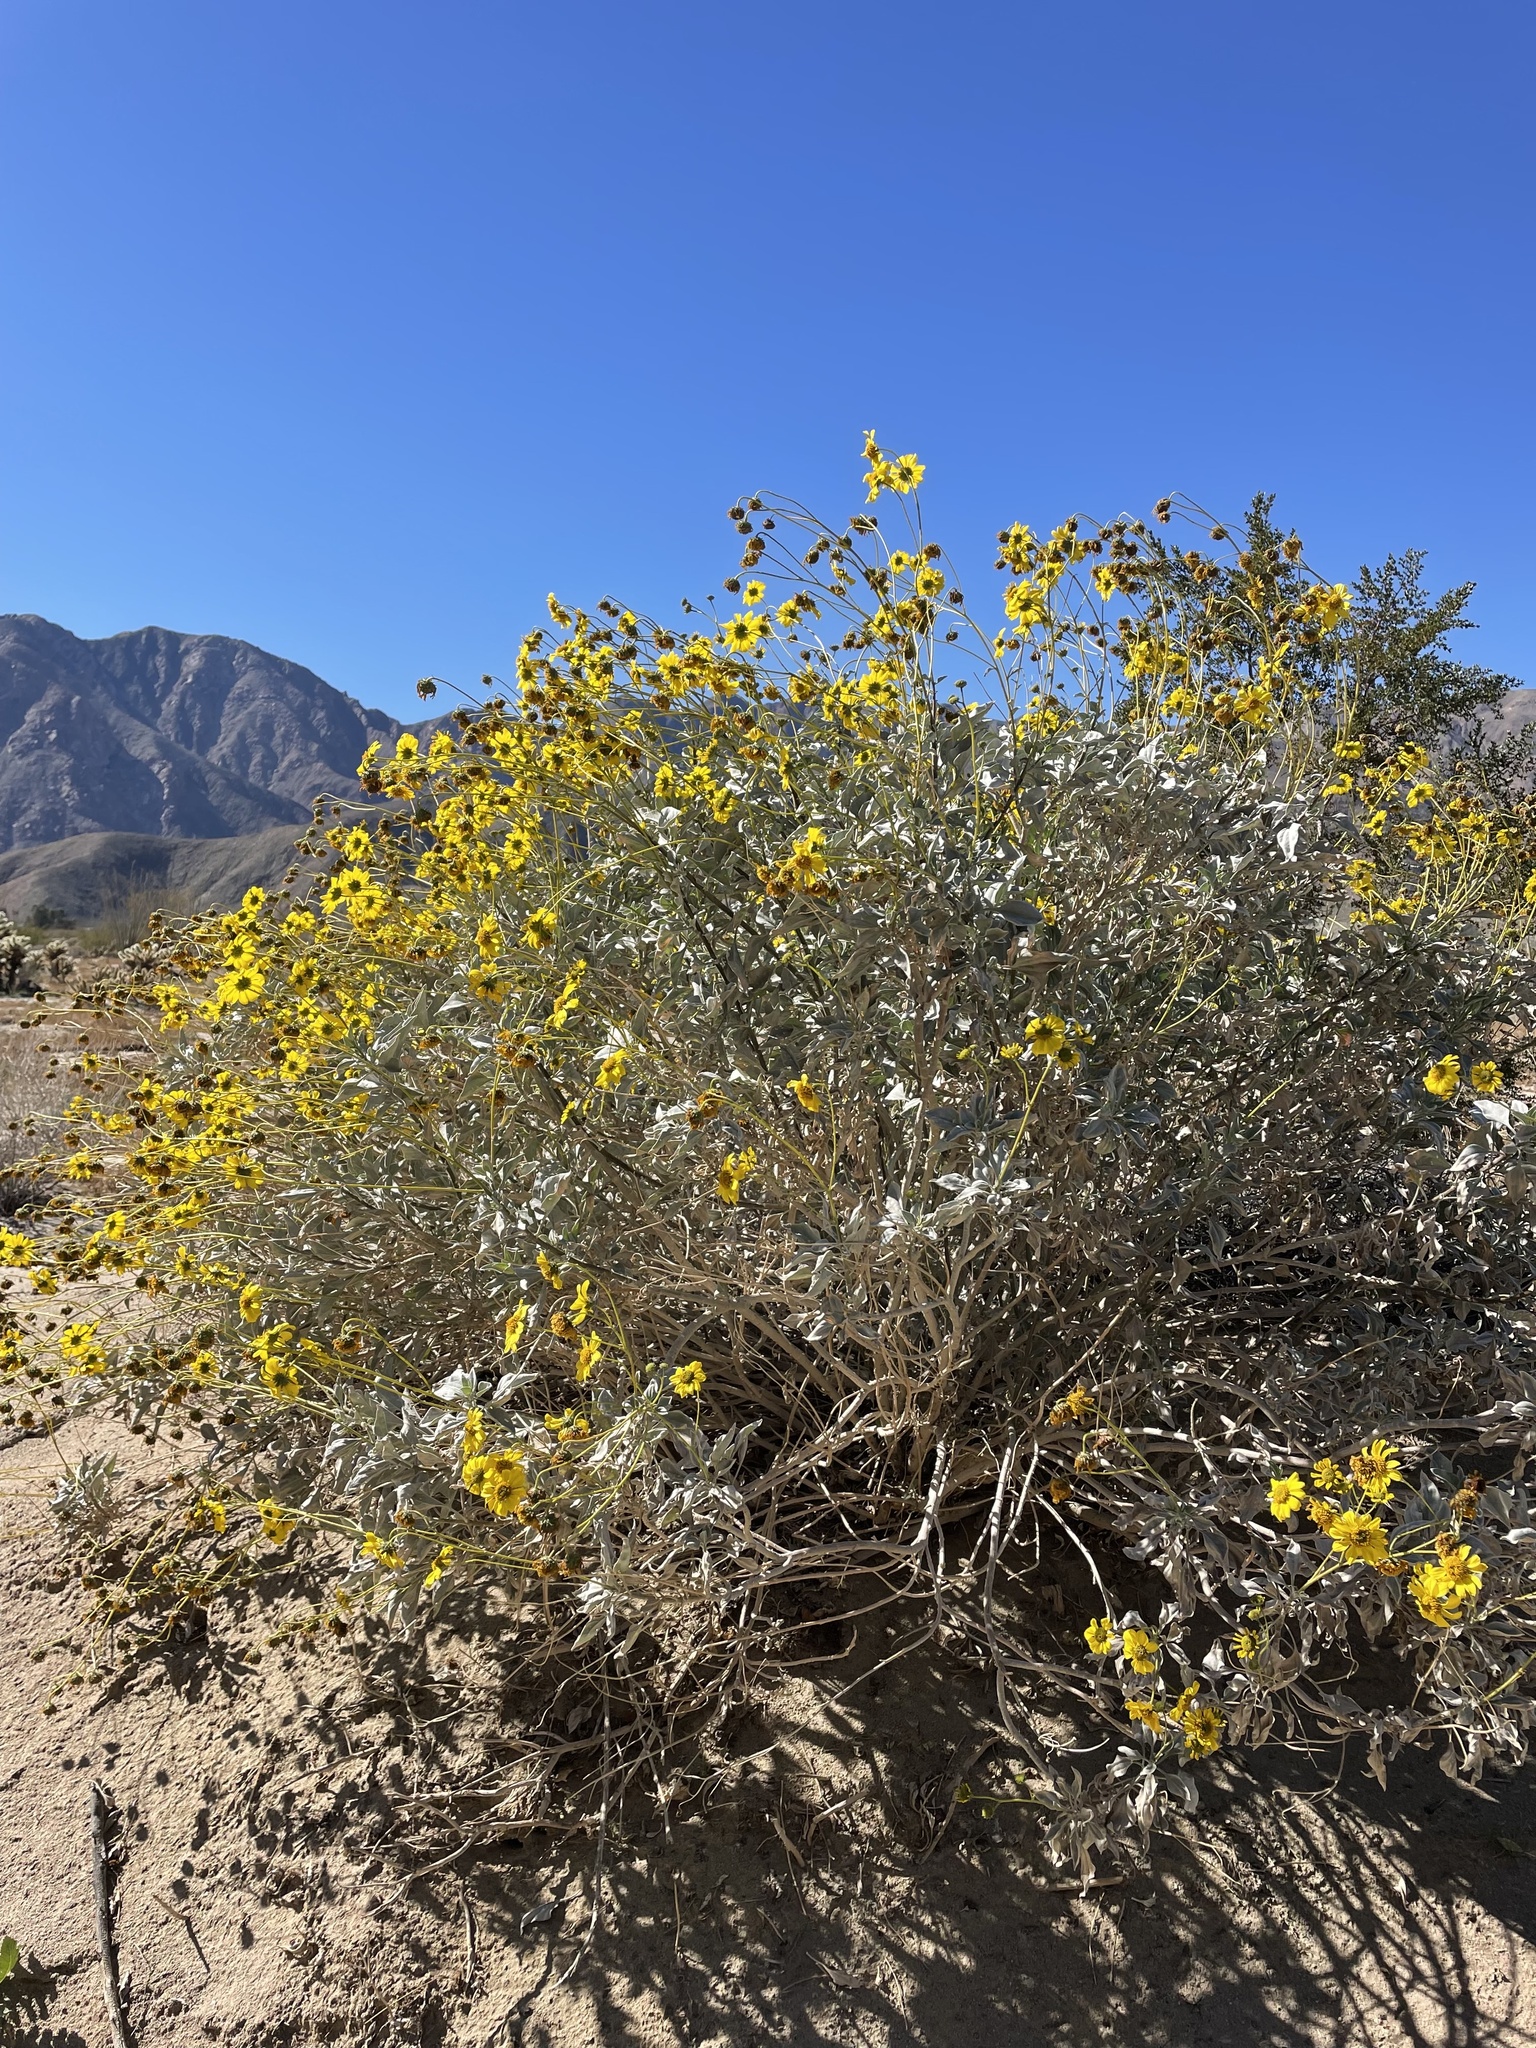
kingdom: Plantae
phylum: Tracheophyta
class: Magnoliopsida
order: Asterales
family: Asteraceae
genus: Encelia
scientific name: Encelia farinosa
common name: Brittlebush
